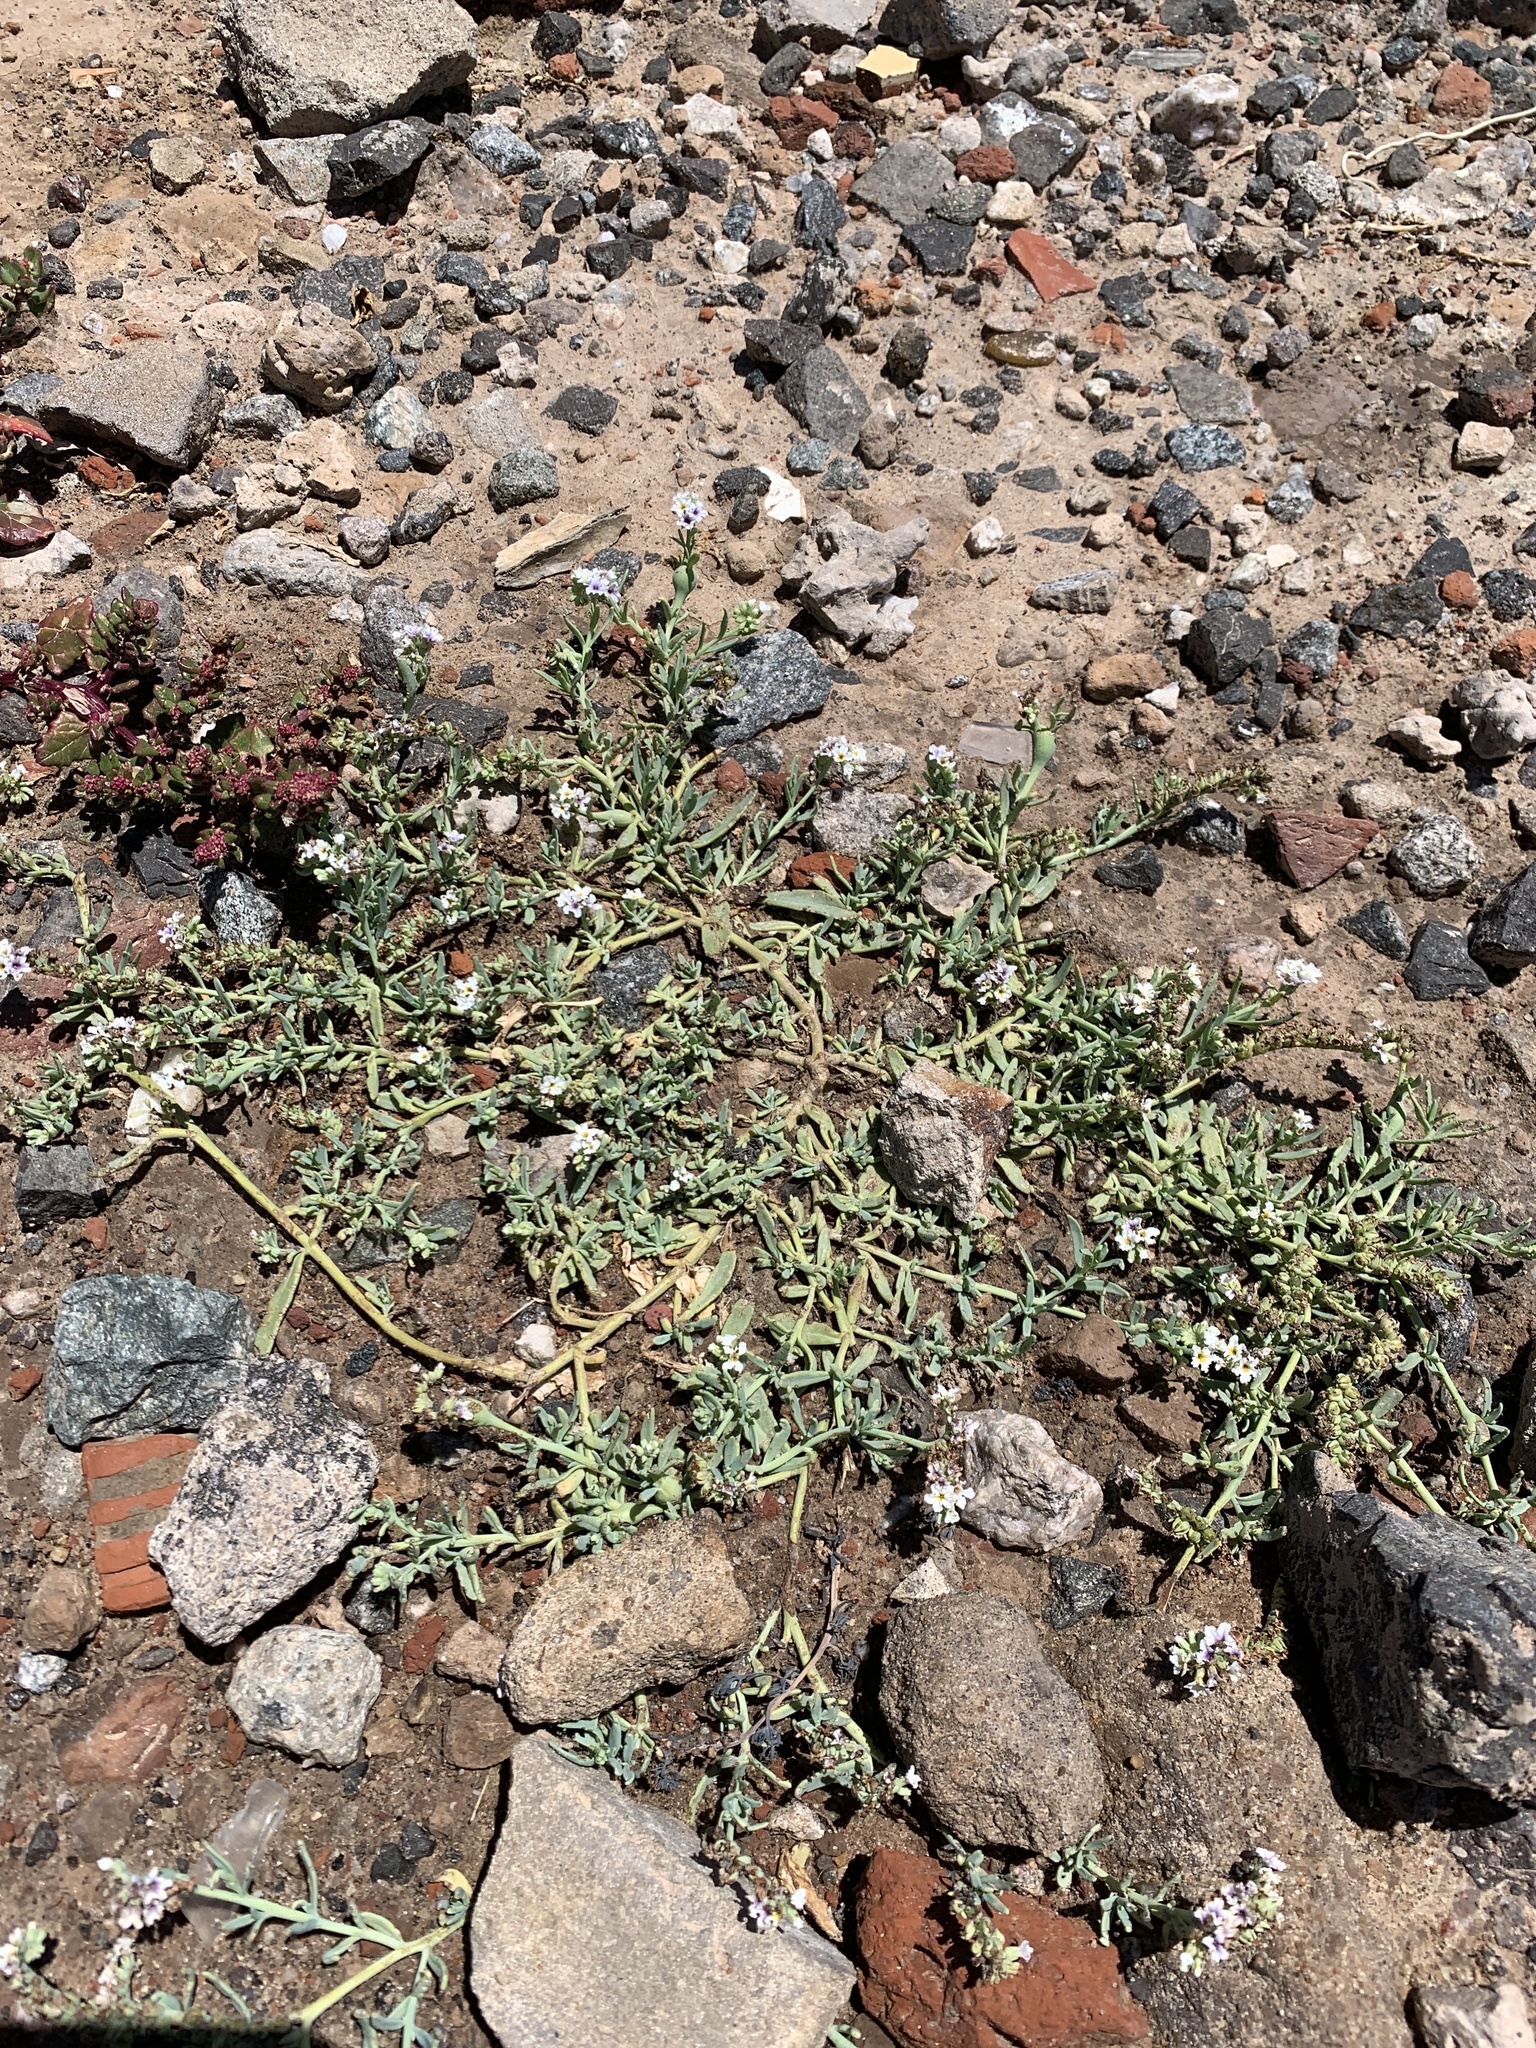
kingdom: Plantae
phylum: Tracheophyta
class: Magnoliopsida
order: Boraginales
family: Heliotropiaceae
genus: Heliotropium
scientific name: Heliotropium curassavicum
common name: Seaside heliotrope
